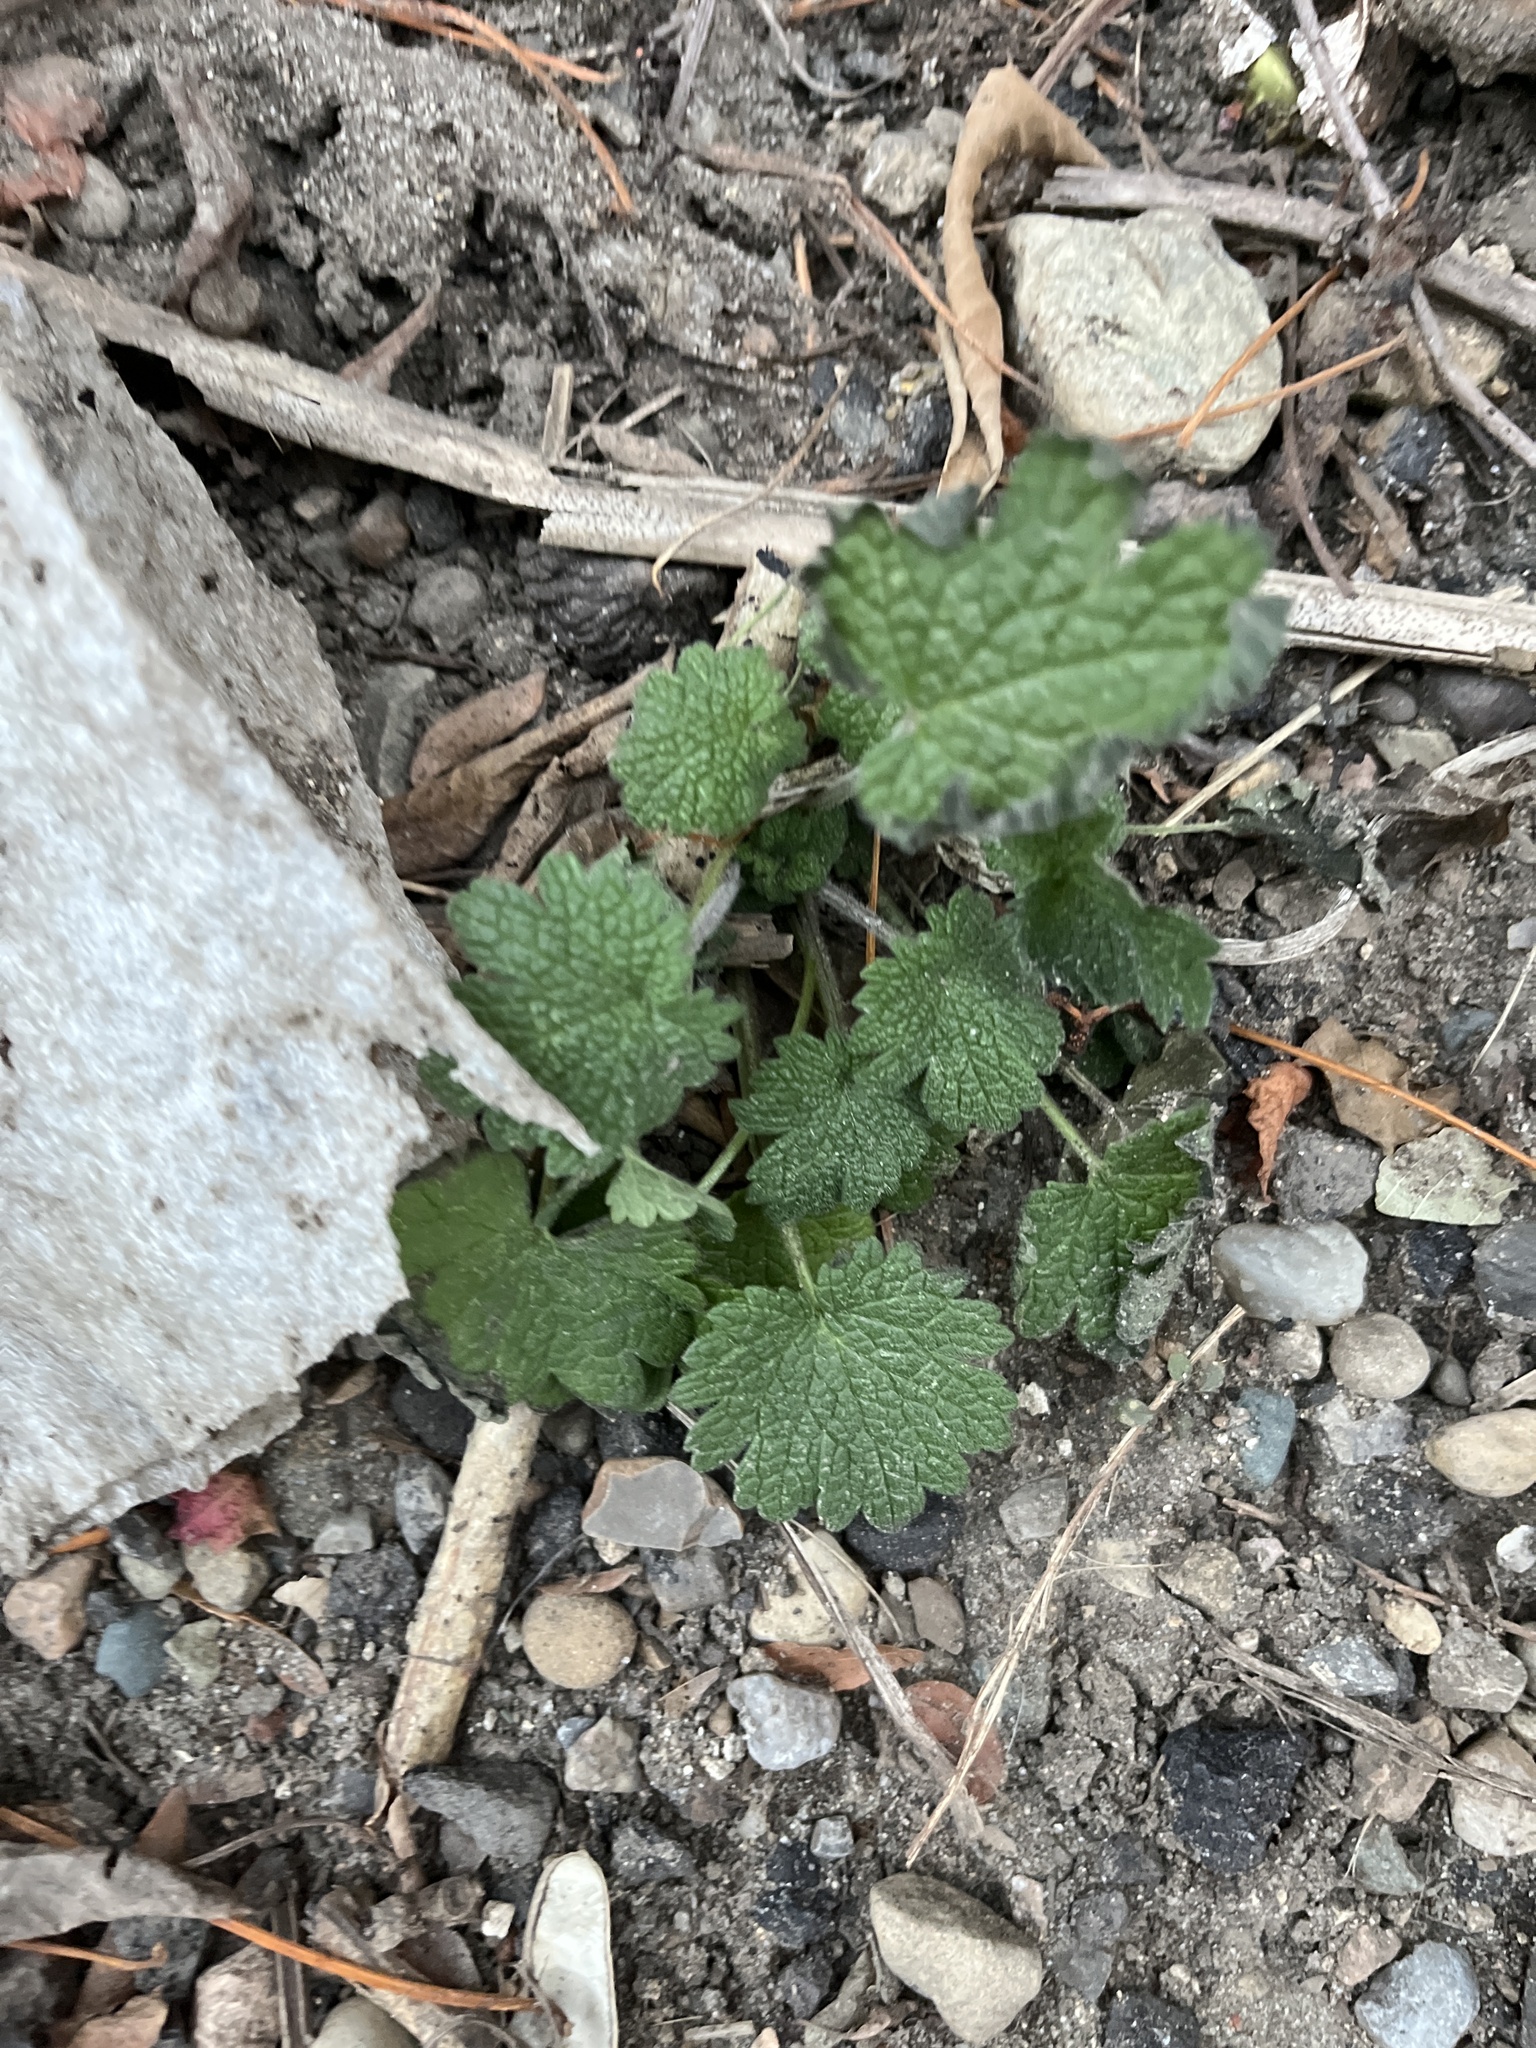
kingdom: Plantae
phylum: Tracheophyta
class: Magnoliopsida
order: Lamiales
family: Lamiaceae
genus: Leonurus
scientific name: Leonurus cardiaca
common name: Motherwort
